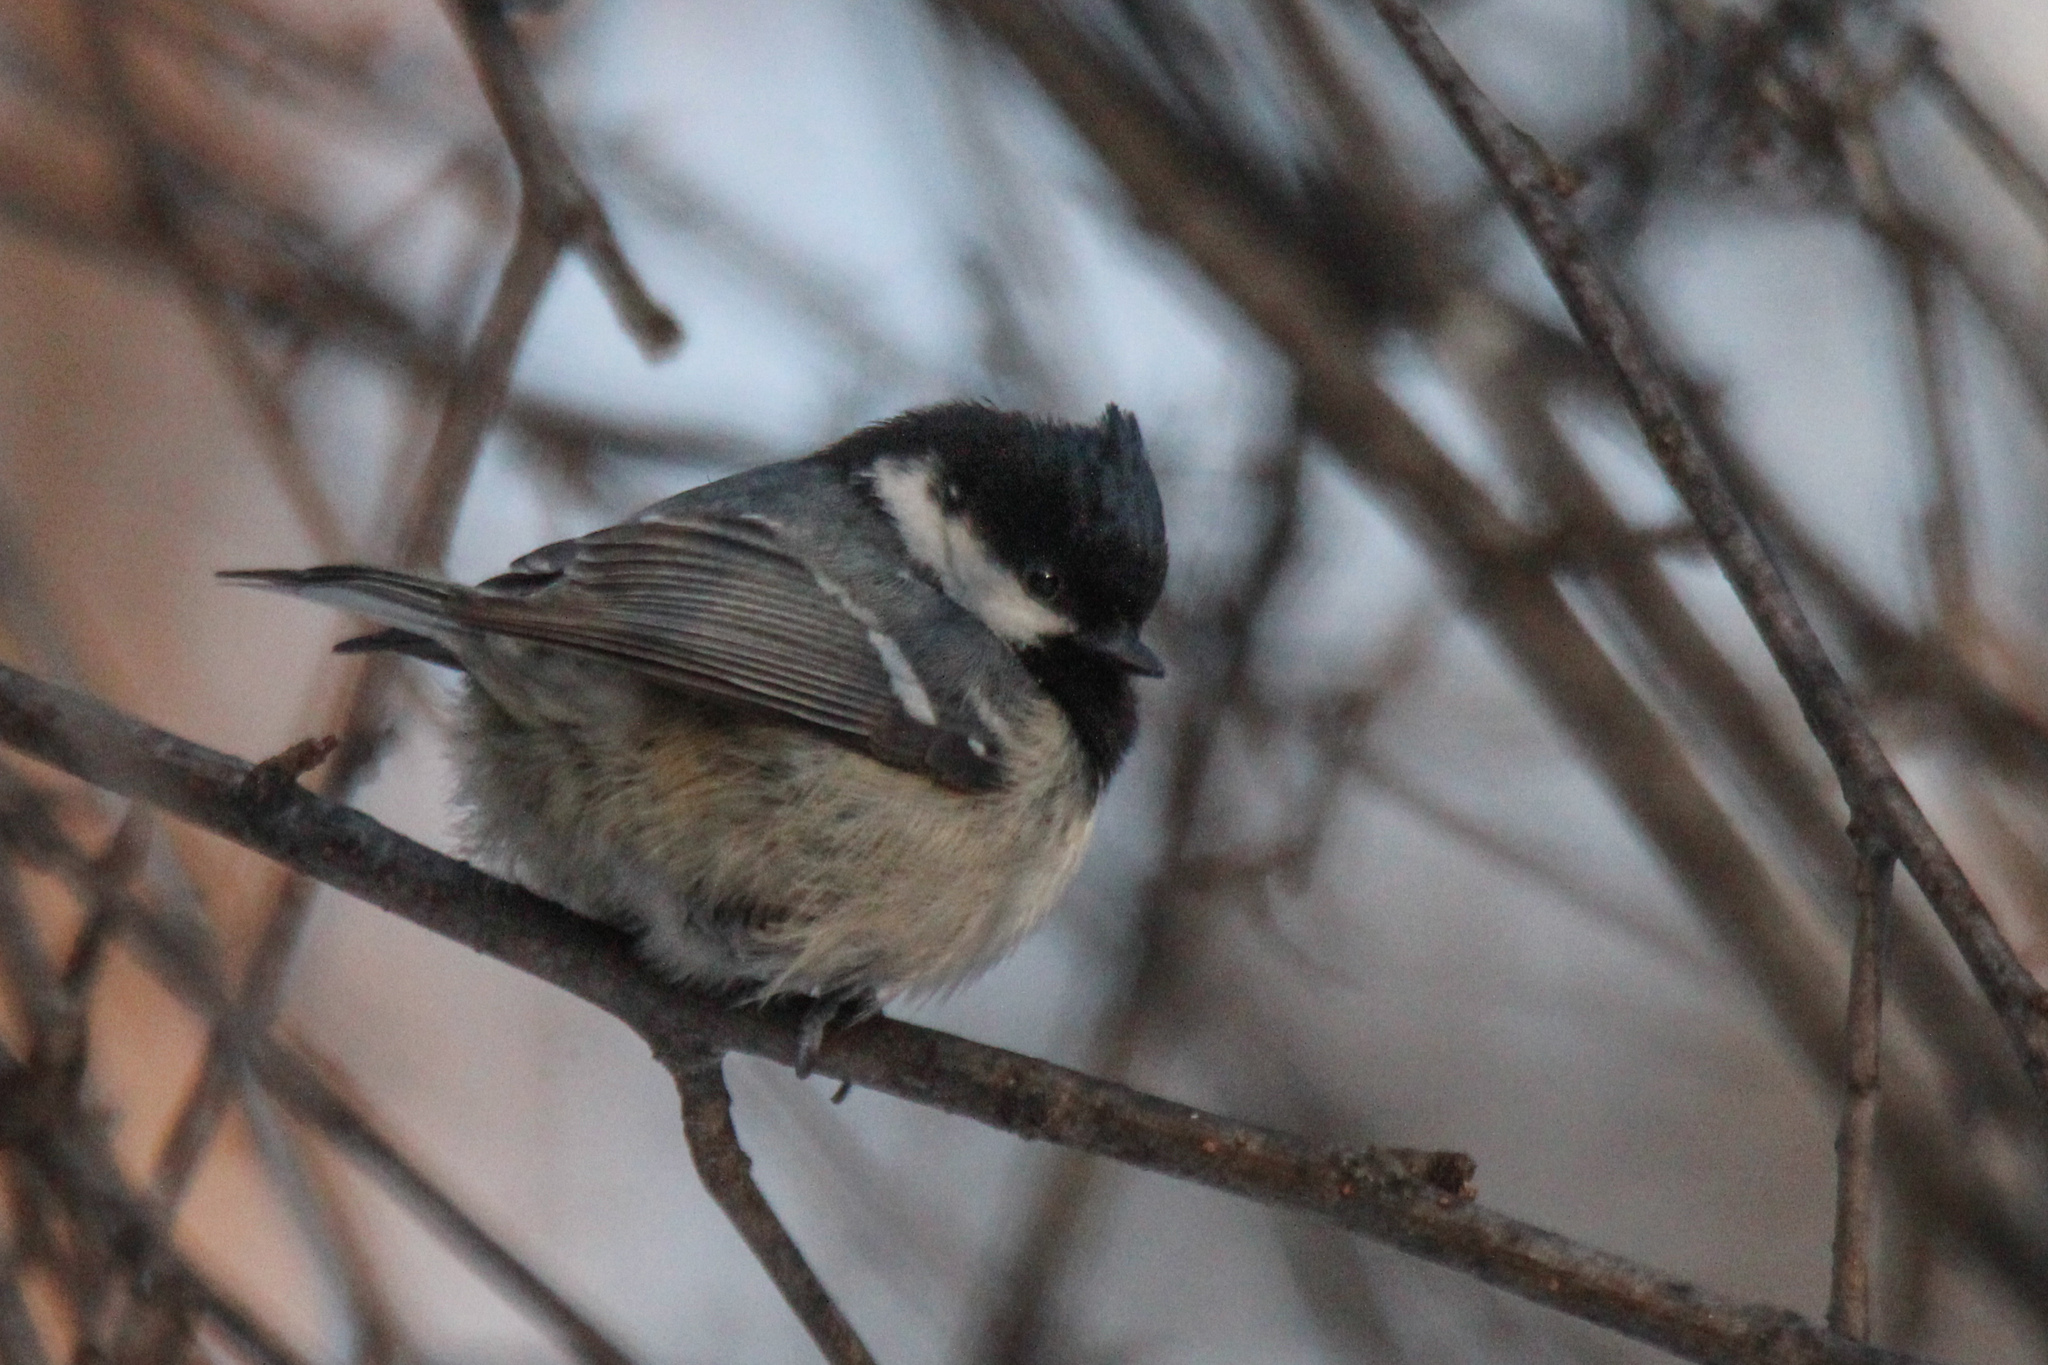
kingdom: Animalia
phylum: Chordata
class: Aves
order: Passeriformes
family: Paridae
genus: Periparus
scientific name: Periparus ater
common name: Coal tit
